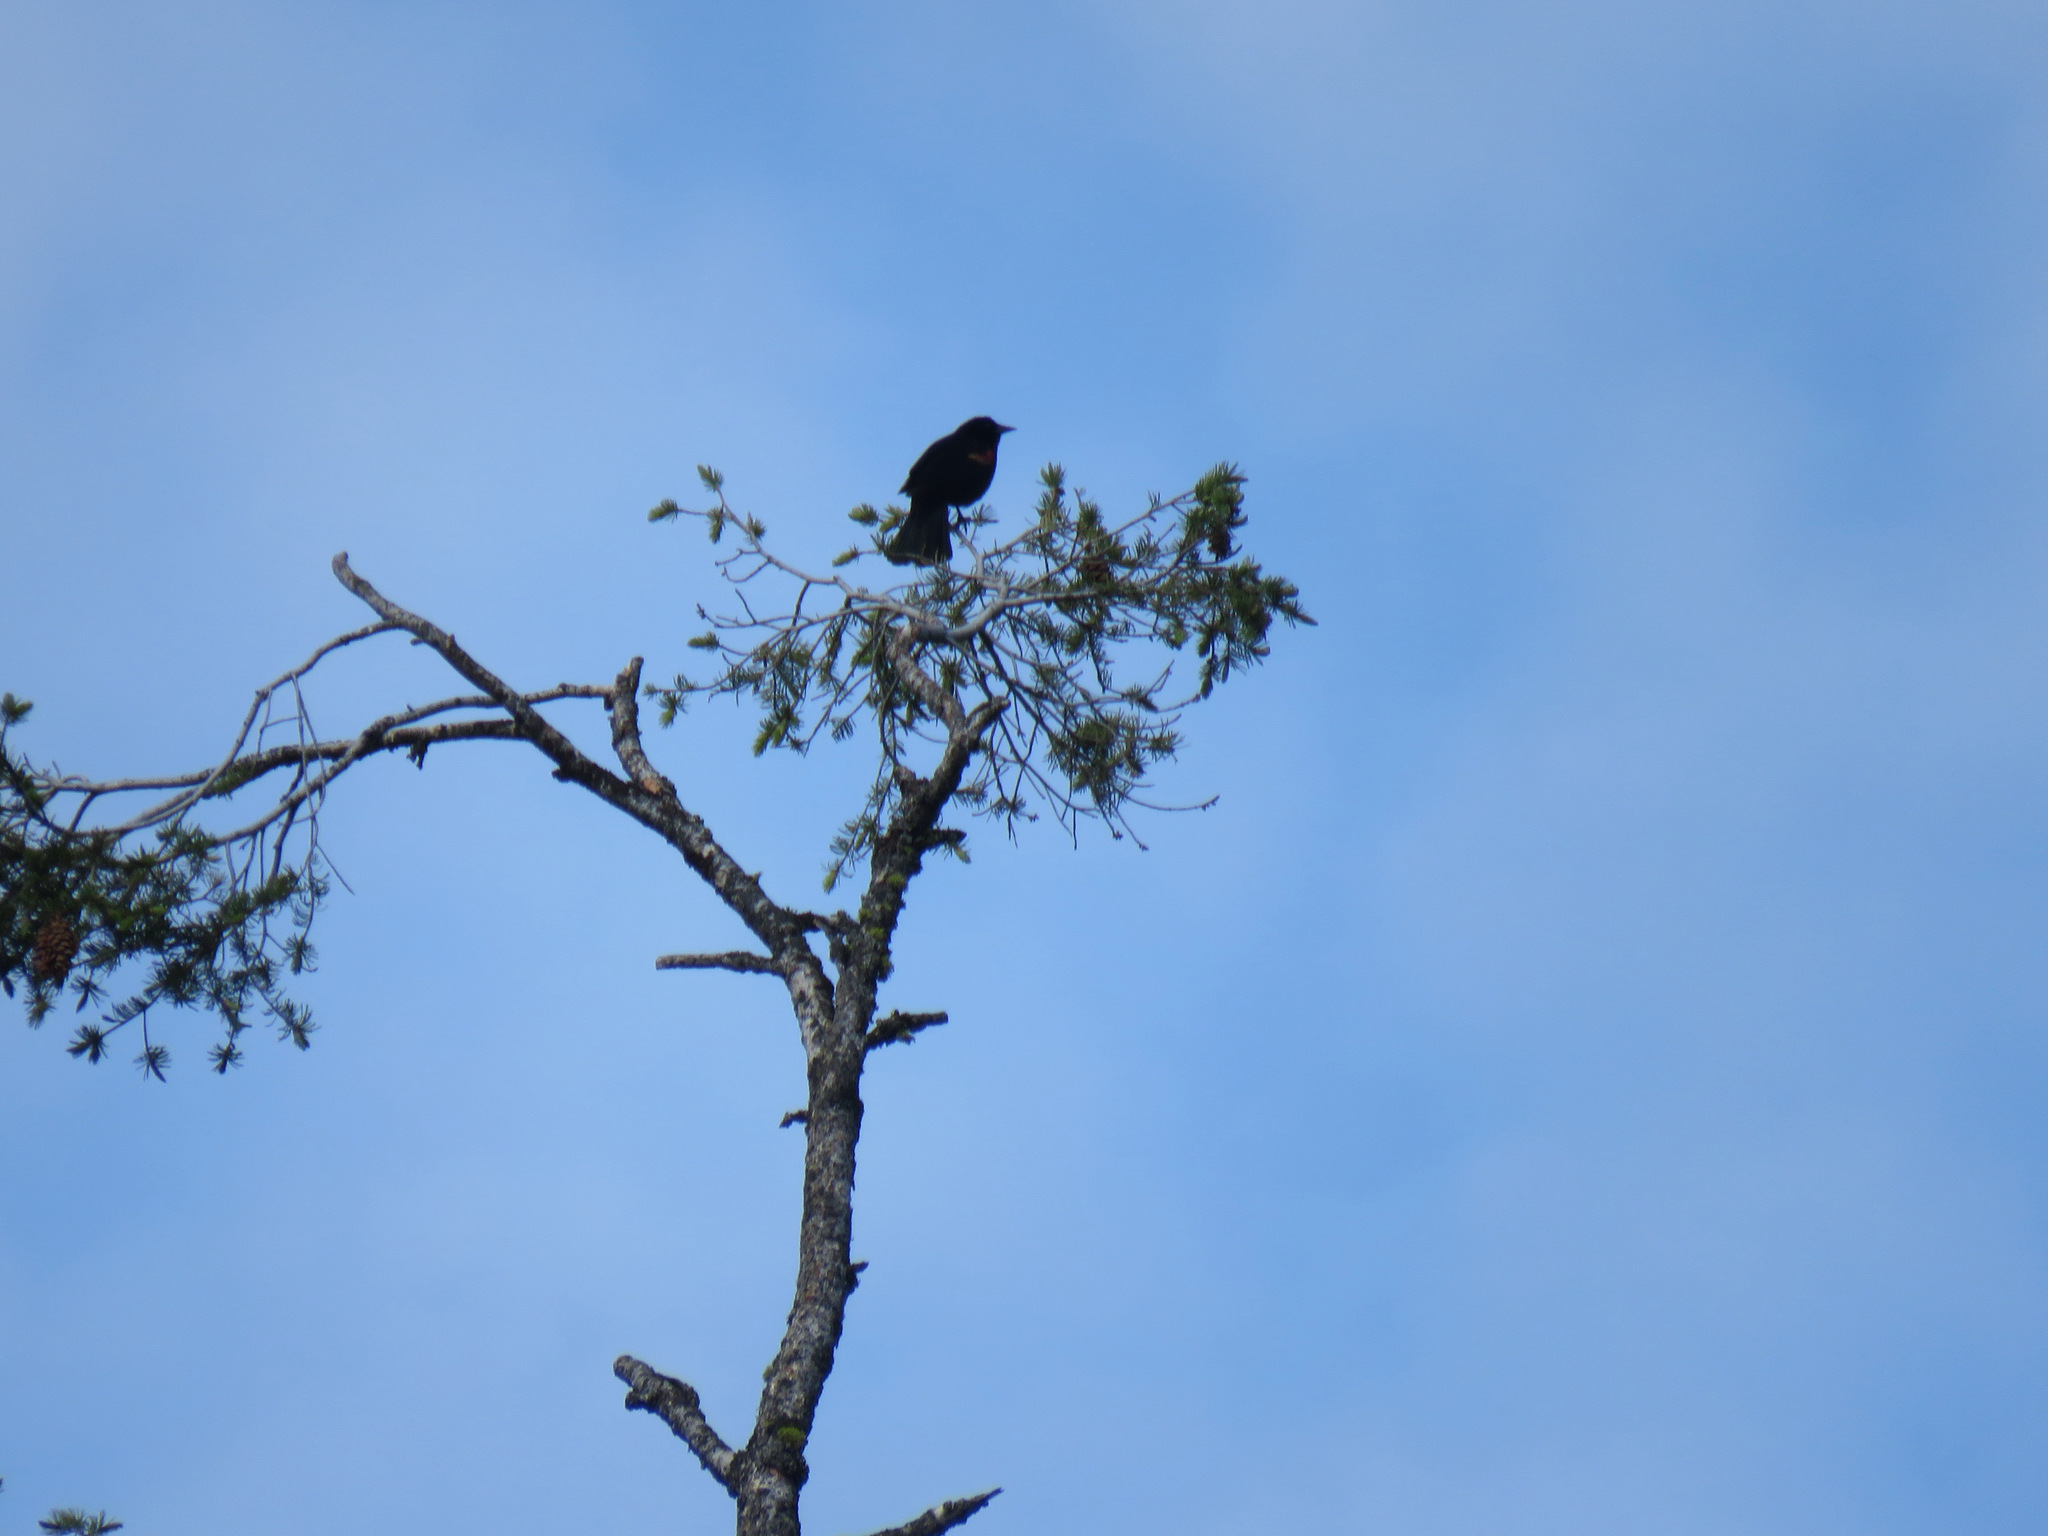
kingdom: Animalia
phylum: Chordata
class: Aves
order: Passeriformes
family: Icteridae
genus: Agelaius
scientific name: Agelaius phoeniceus
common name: Red-winged blackbird
